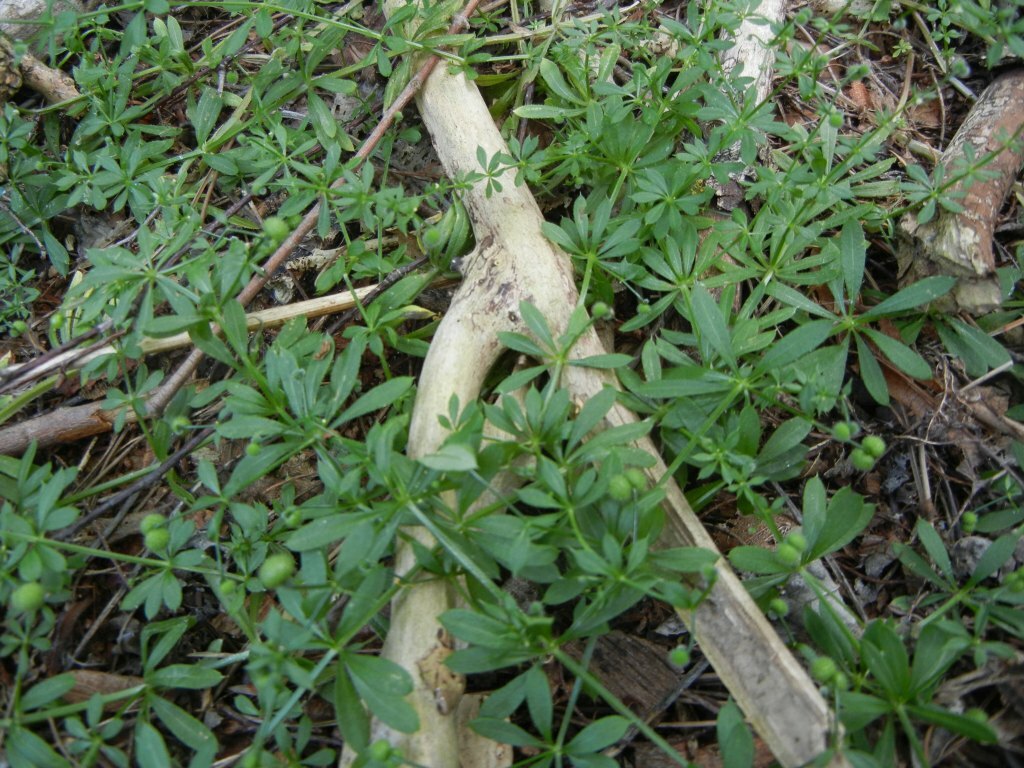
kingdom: Plantae
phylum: Tracheophyta
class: Magnoliopsida
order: Gentianales
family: Rubiaceae
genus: Galium
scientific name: Galium aparine
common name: Cleavers
